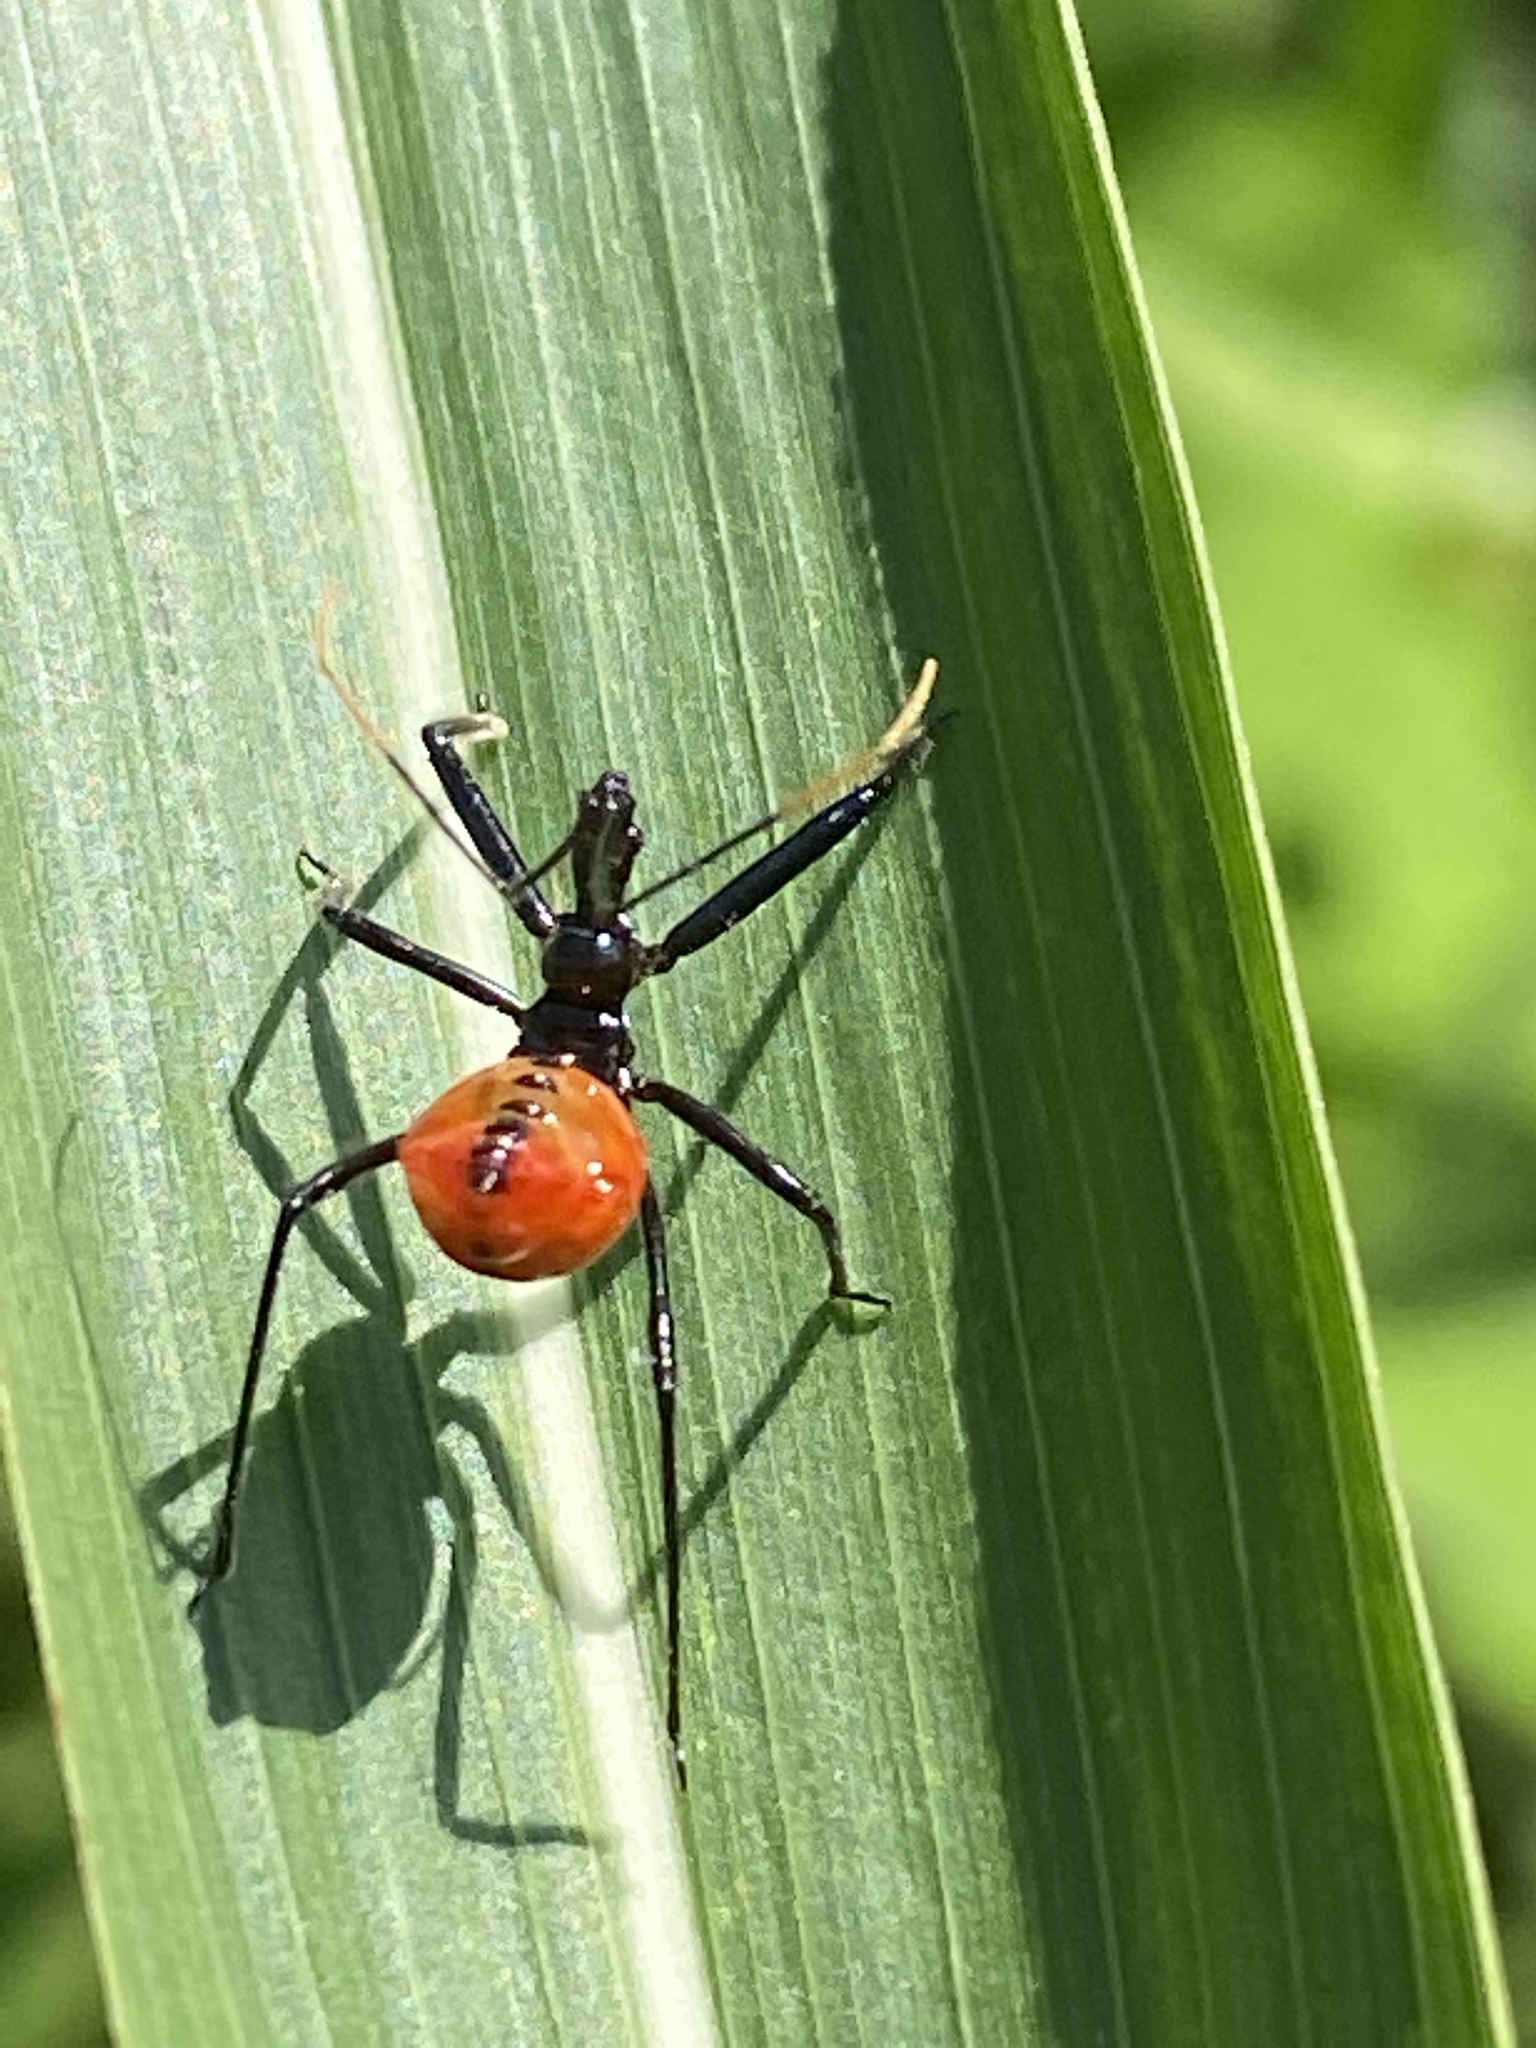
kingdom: Animalia
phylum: Arthropoda
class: Insecta
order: Hemiptera
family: Reduviidae
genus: Arilus
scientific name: Arilus cristatus
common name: North american wheel bug
